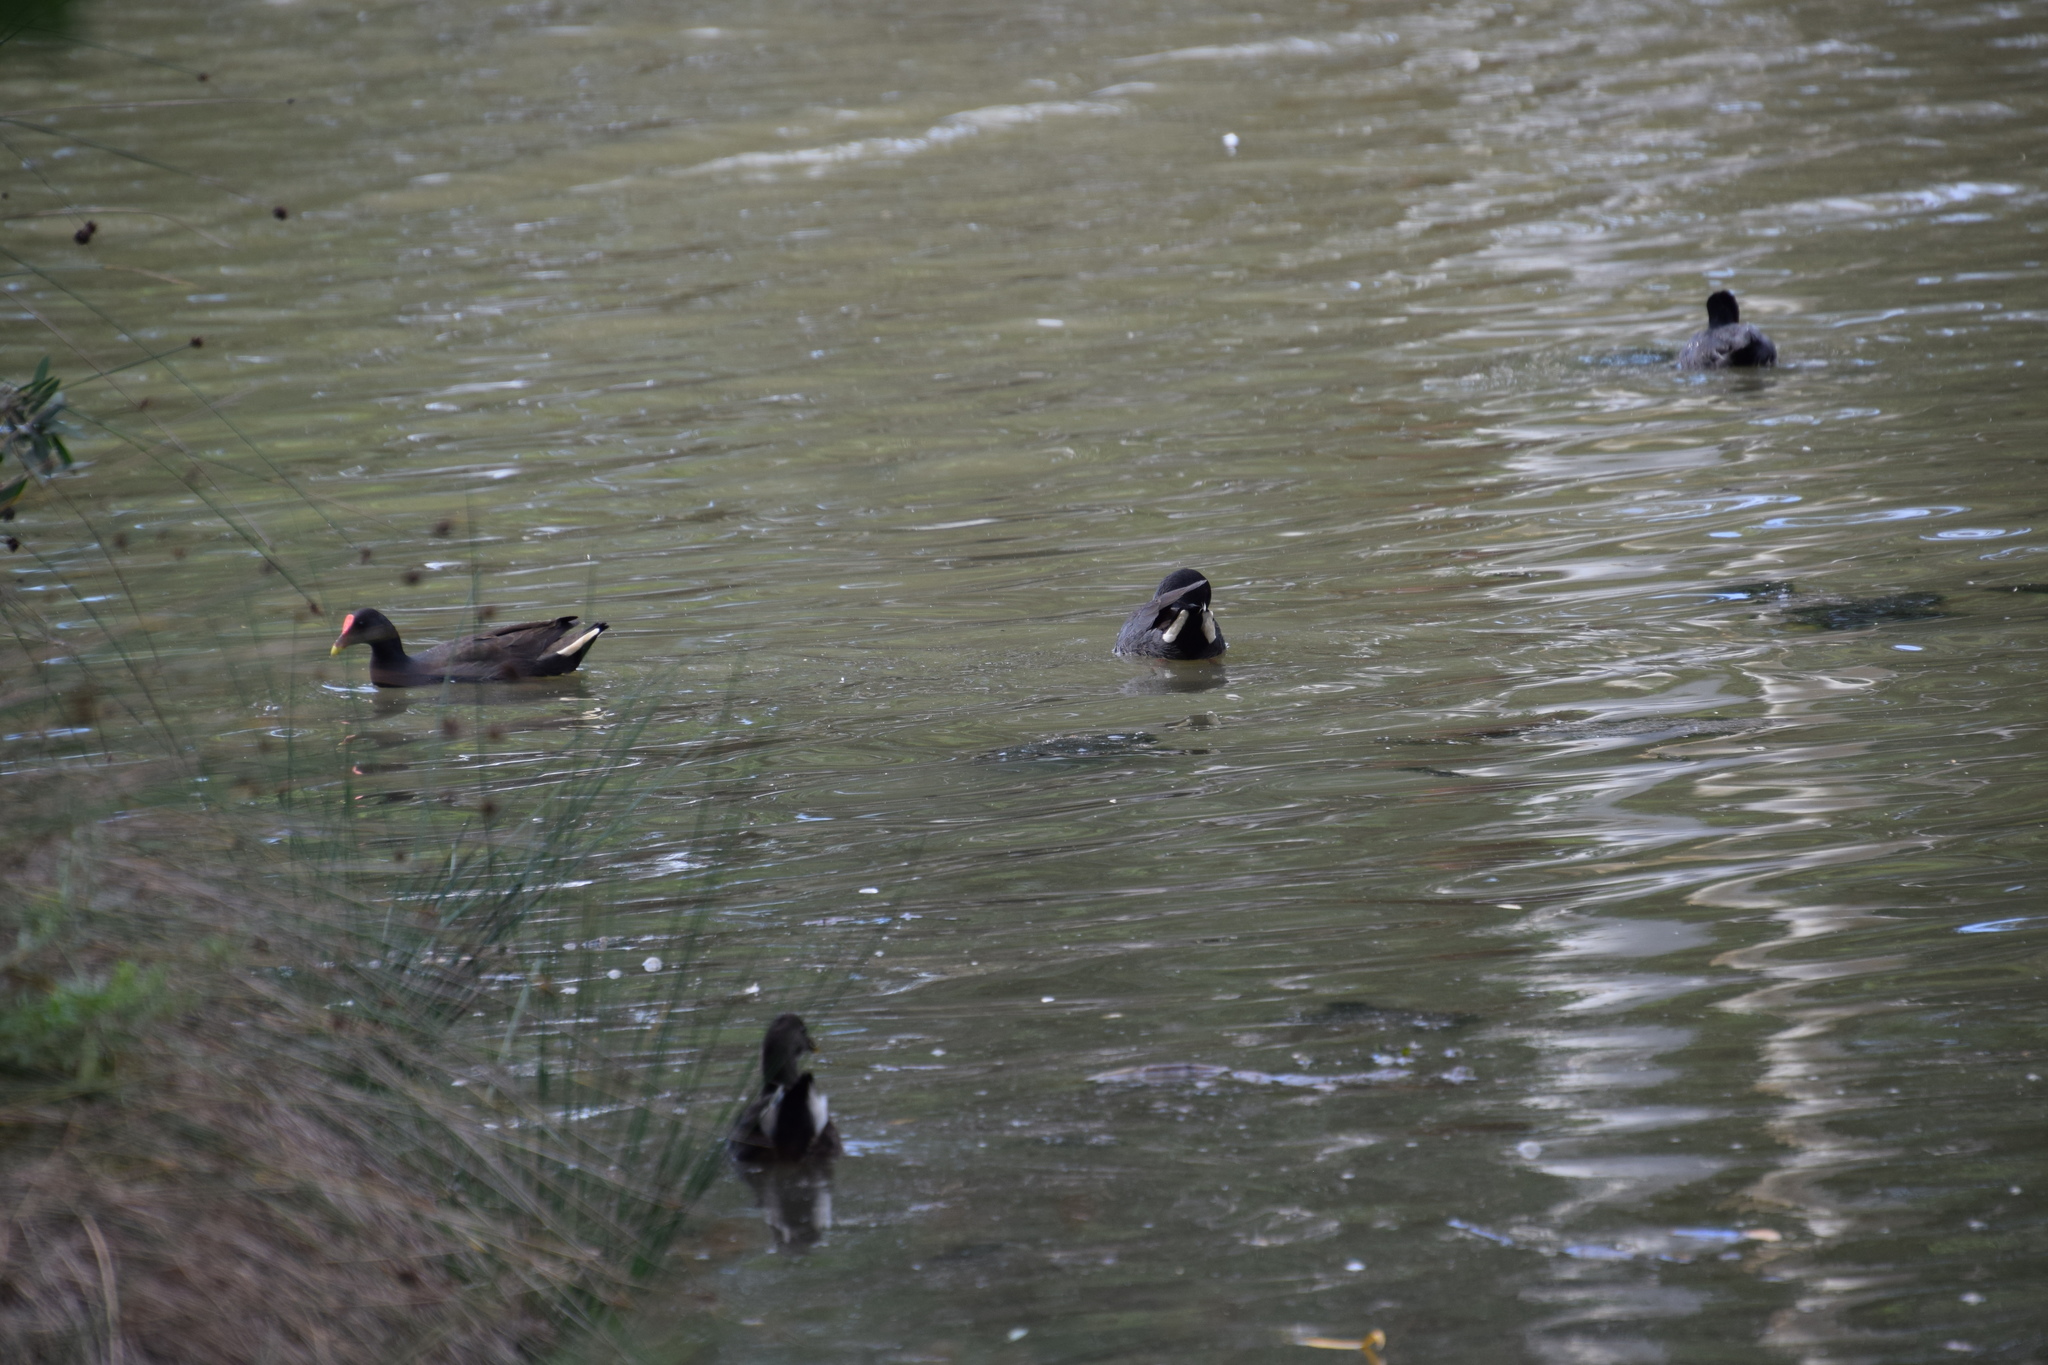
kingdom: Animalia
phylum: Chordata
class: Aves
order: Gruiformes
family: Rallidae
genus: Gallinula
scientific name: Gallinula tenebrosa
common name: Dusky moorhen
